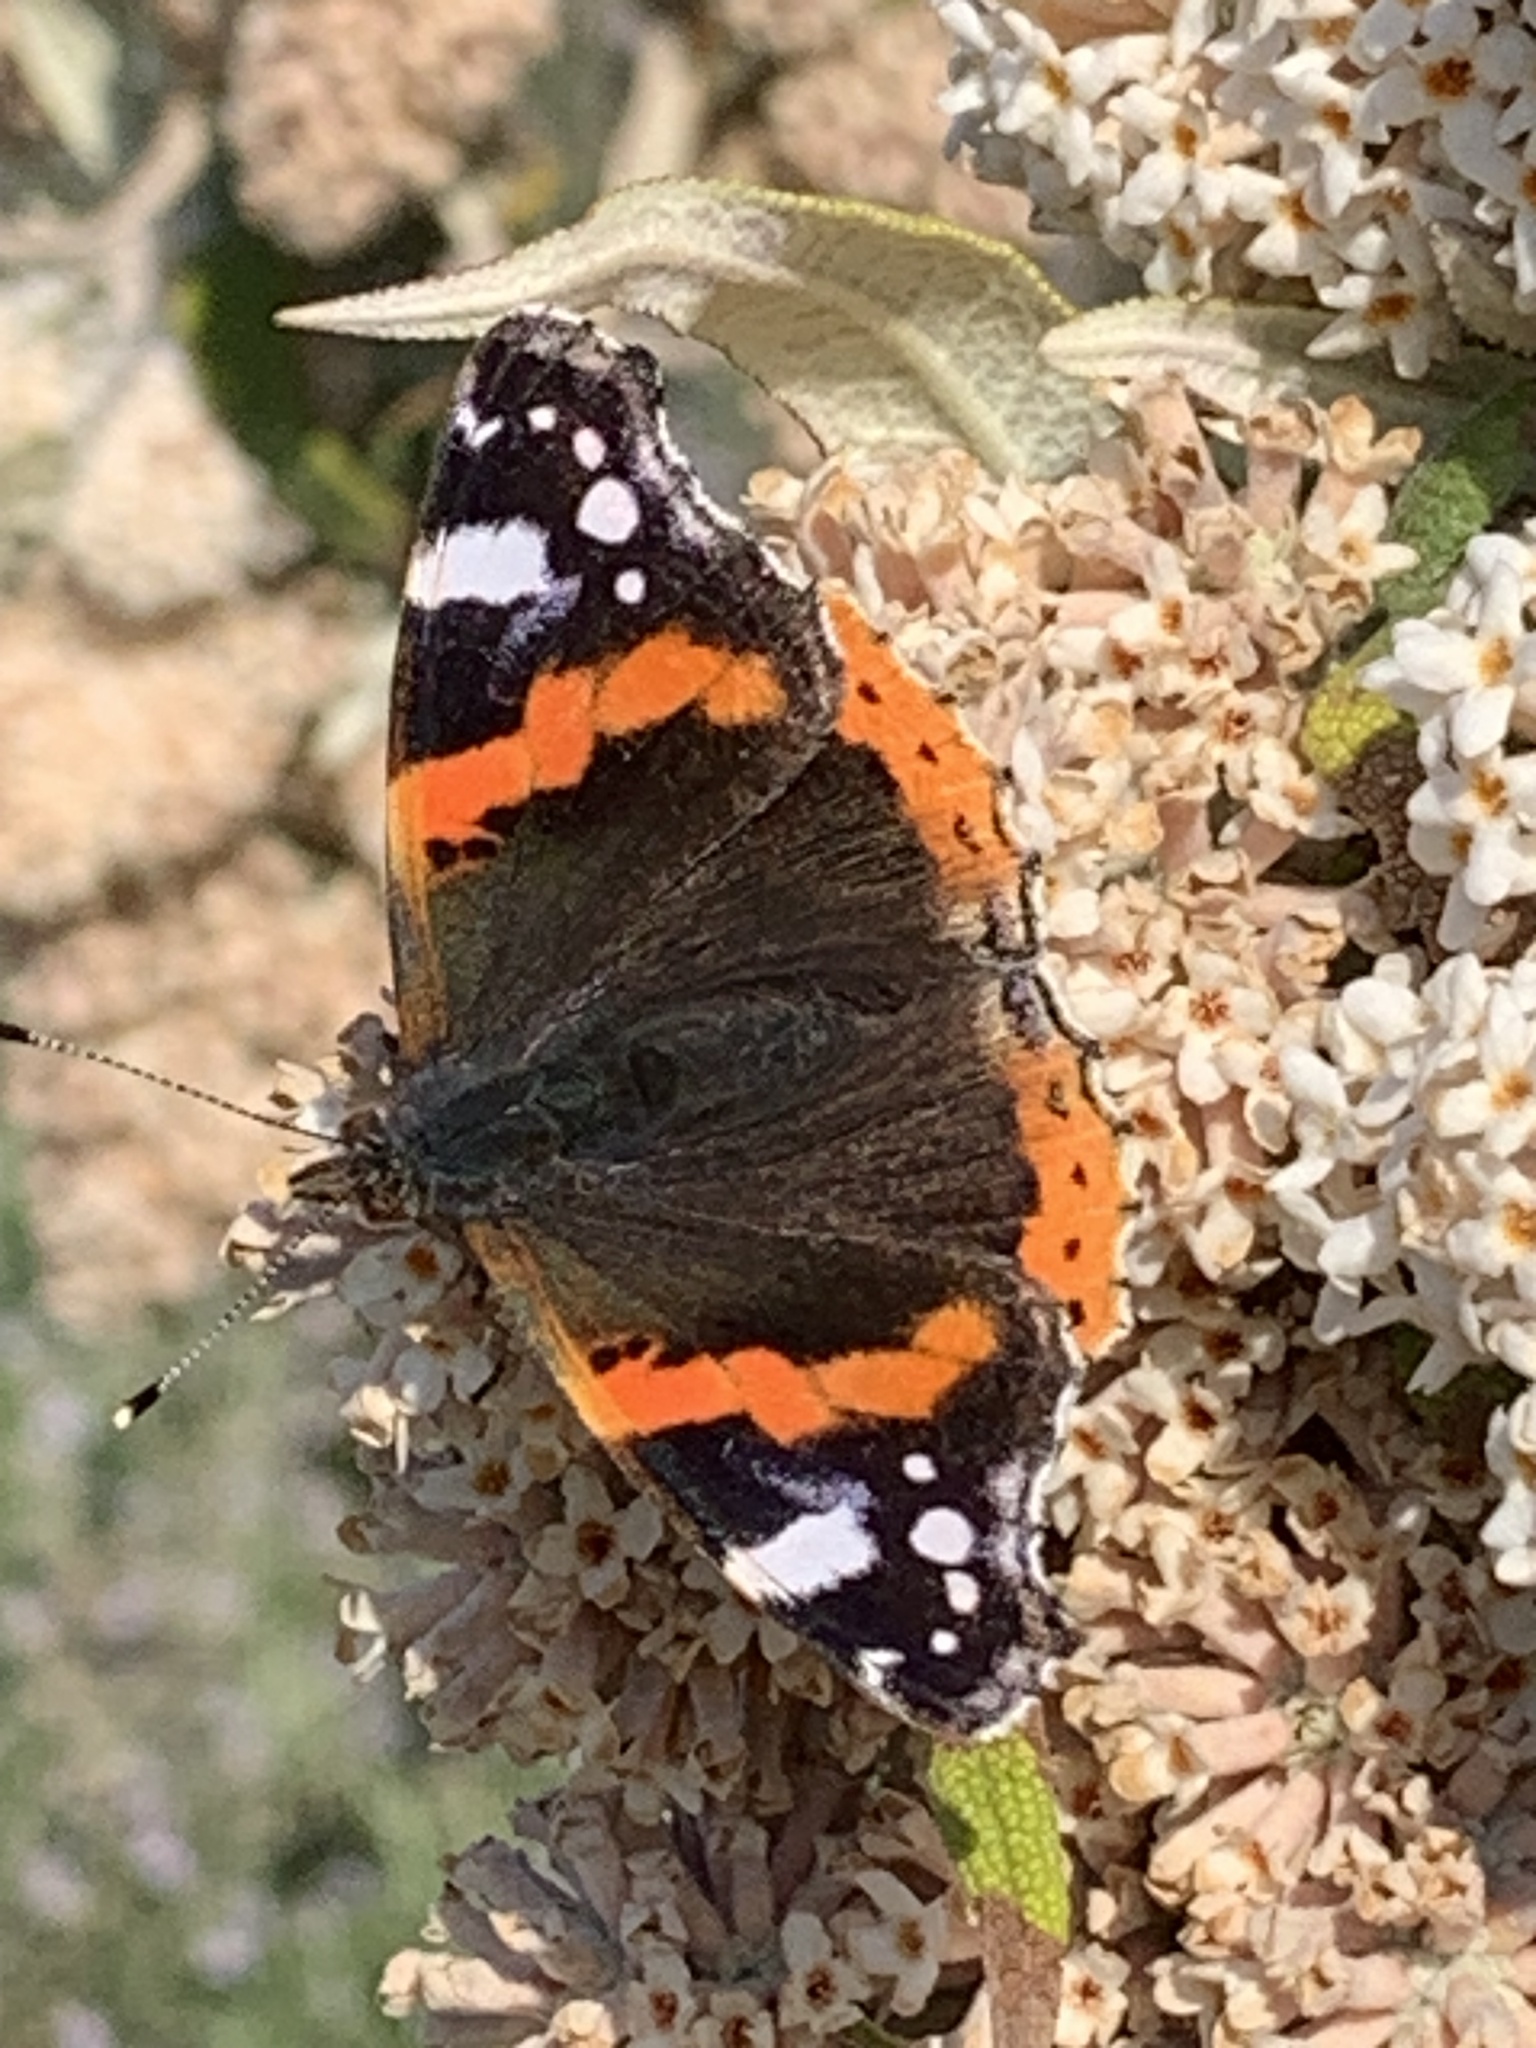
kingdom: Animalia
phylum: Arthropoda
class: Insecta
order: Lepidoptera
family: Nymphalidae
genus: Vanessa
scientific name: Vanessa atalanta
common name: Red admiral
